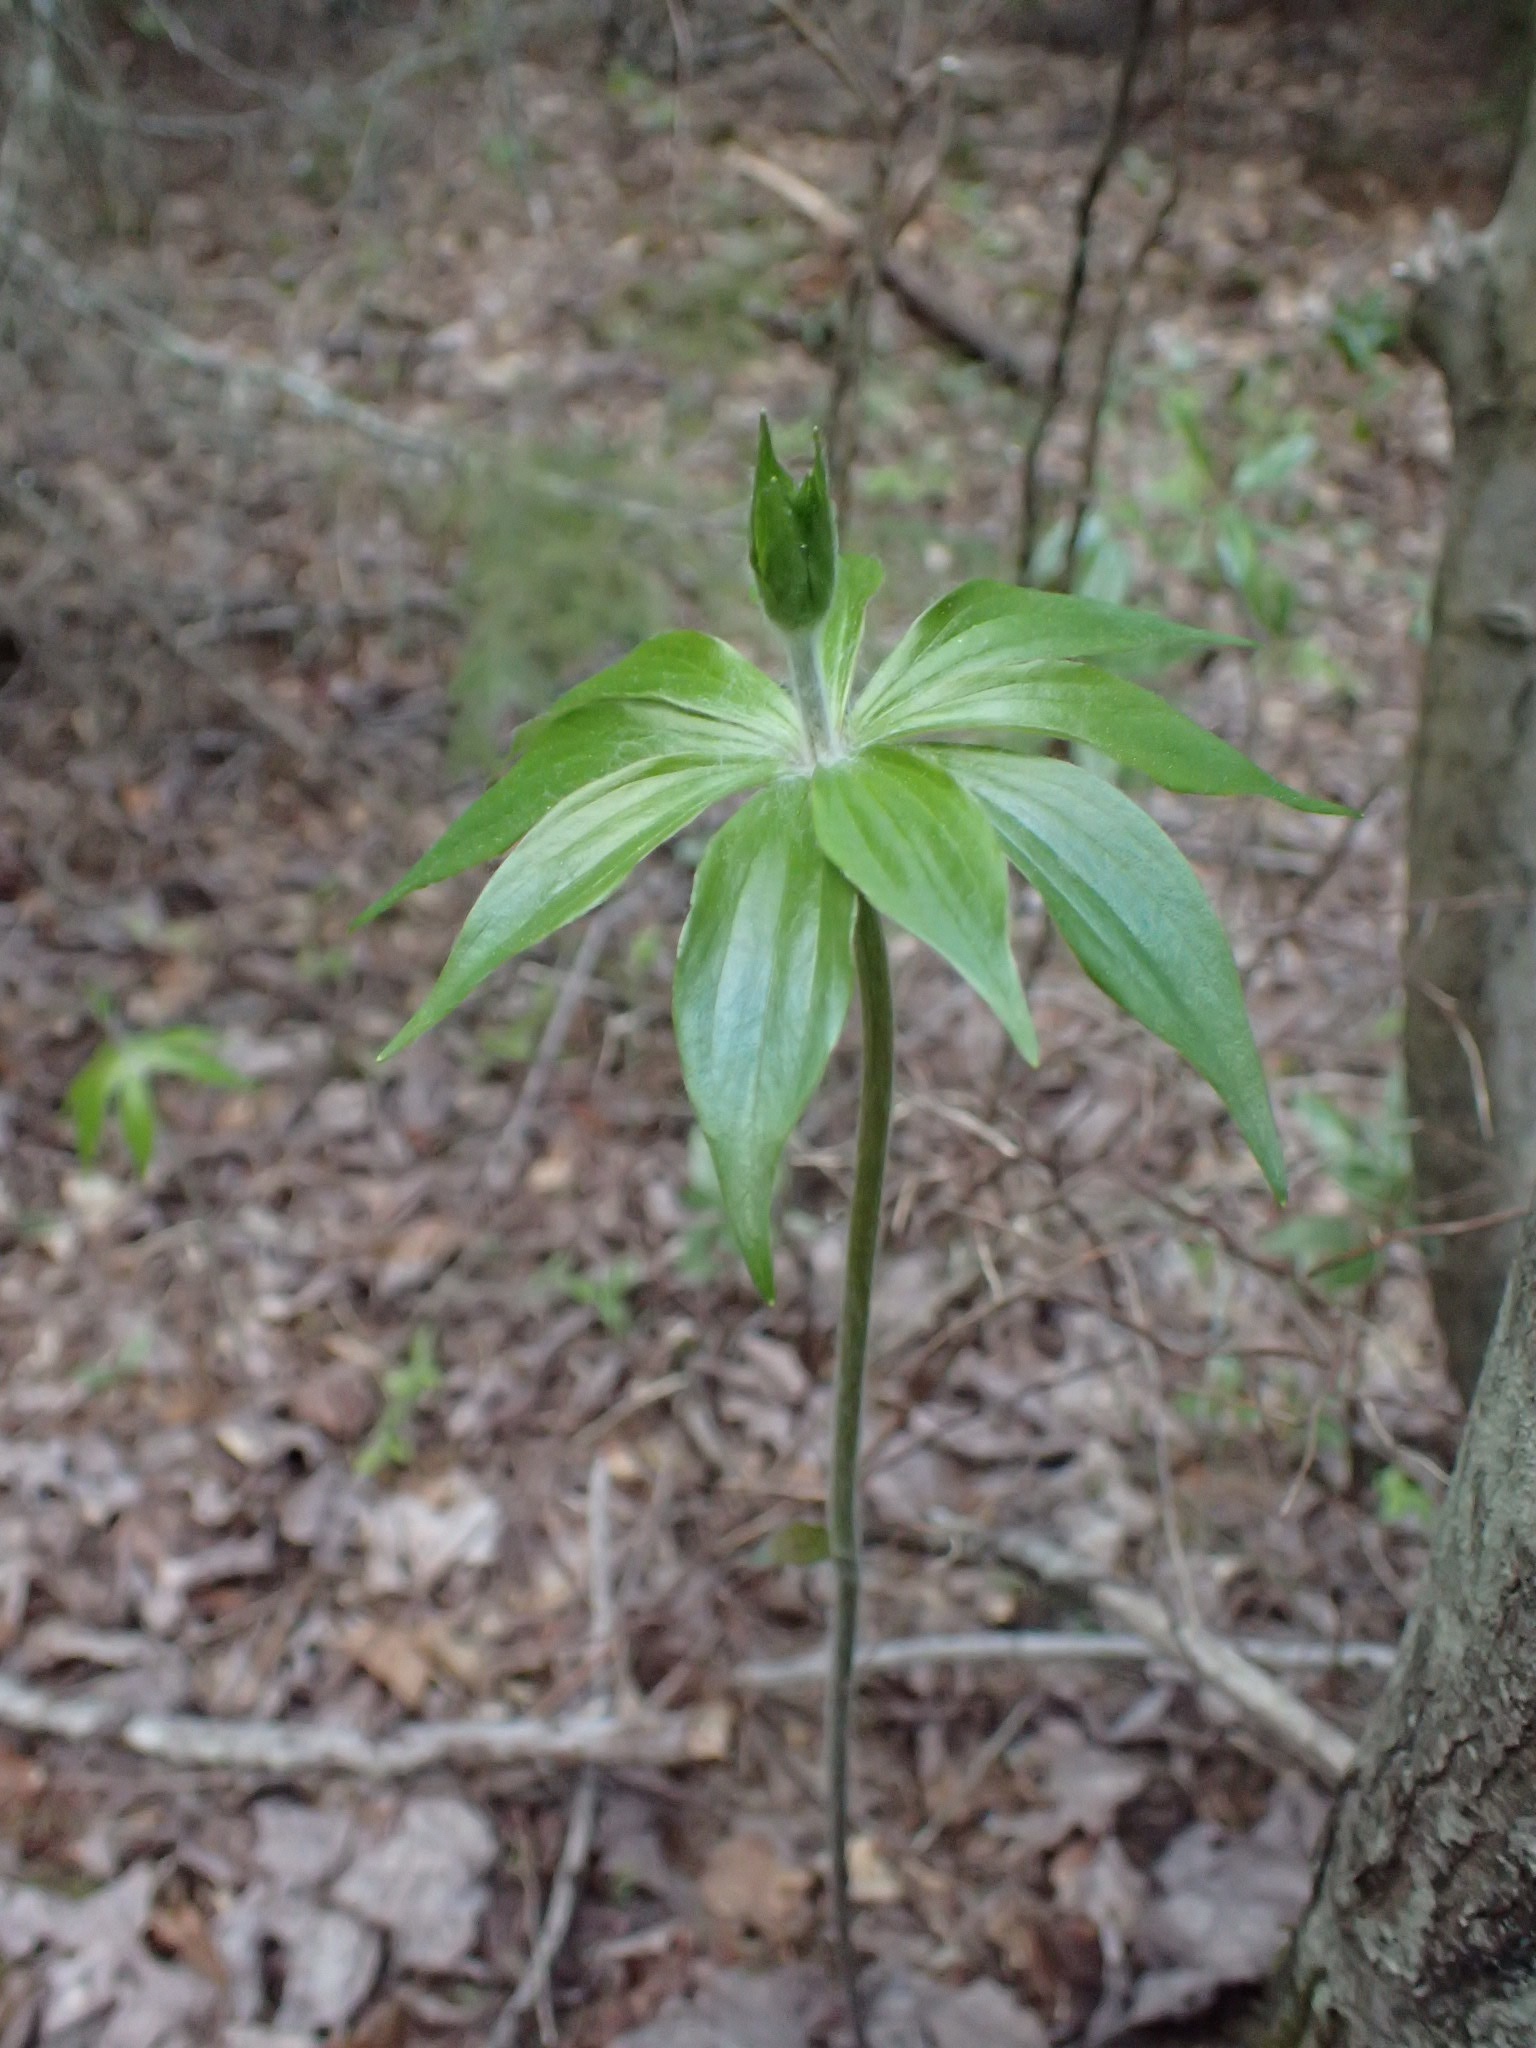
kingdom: Plantae
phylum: Tracheophyta
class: Liliopsida
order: Liliales
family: Liliaceae
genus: Medeola
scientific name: Medeola virginiana
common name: Indian cucumber-root
